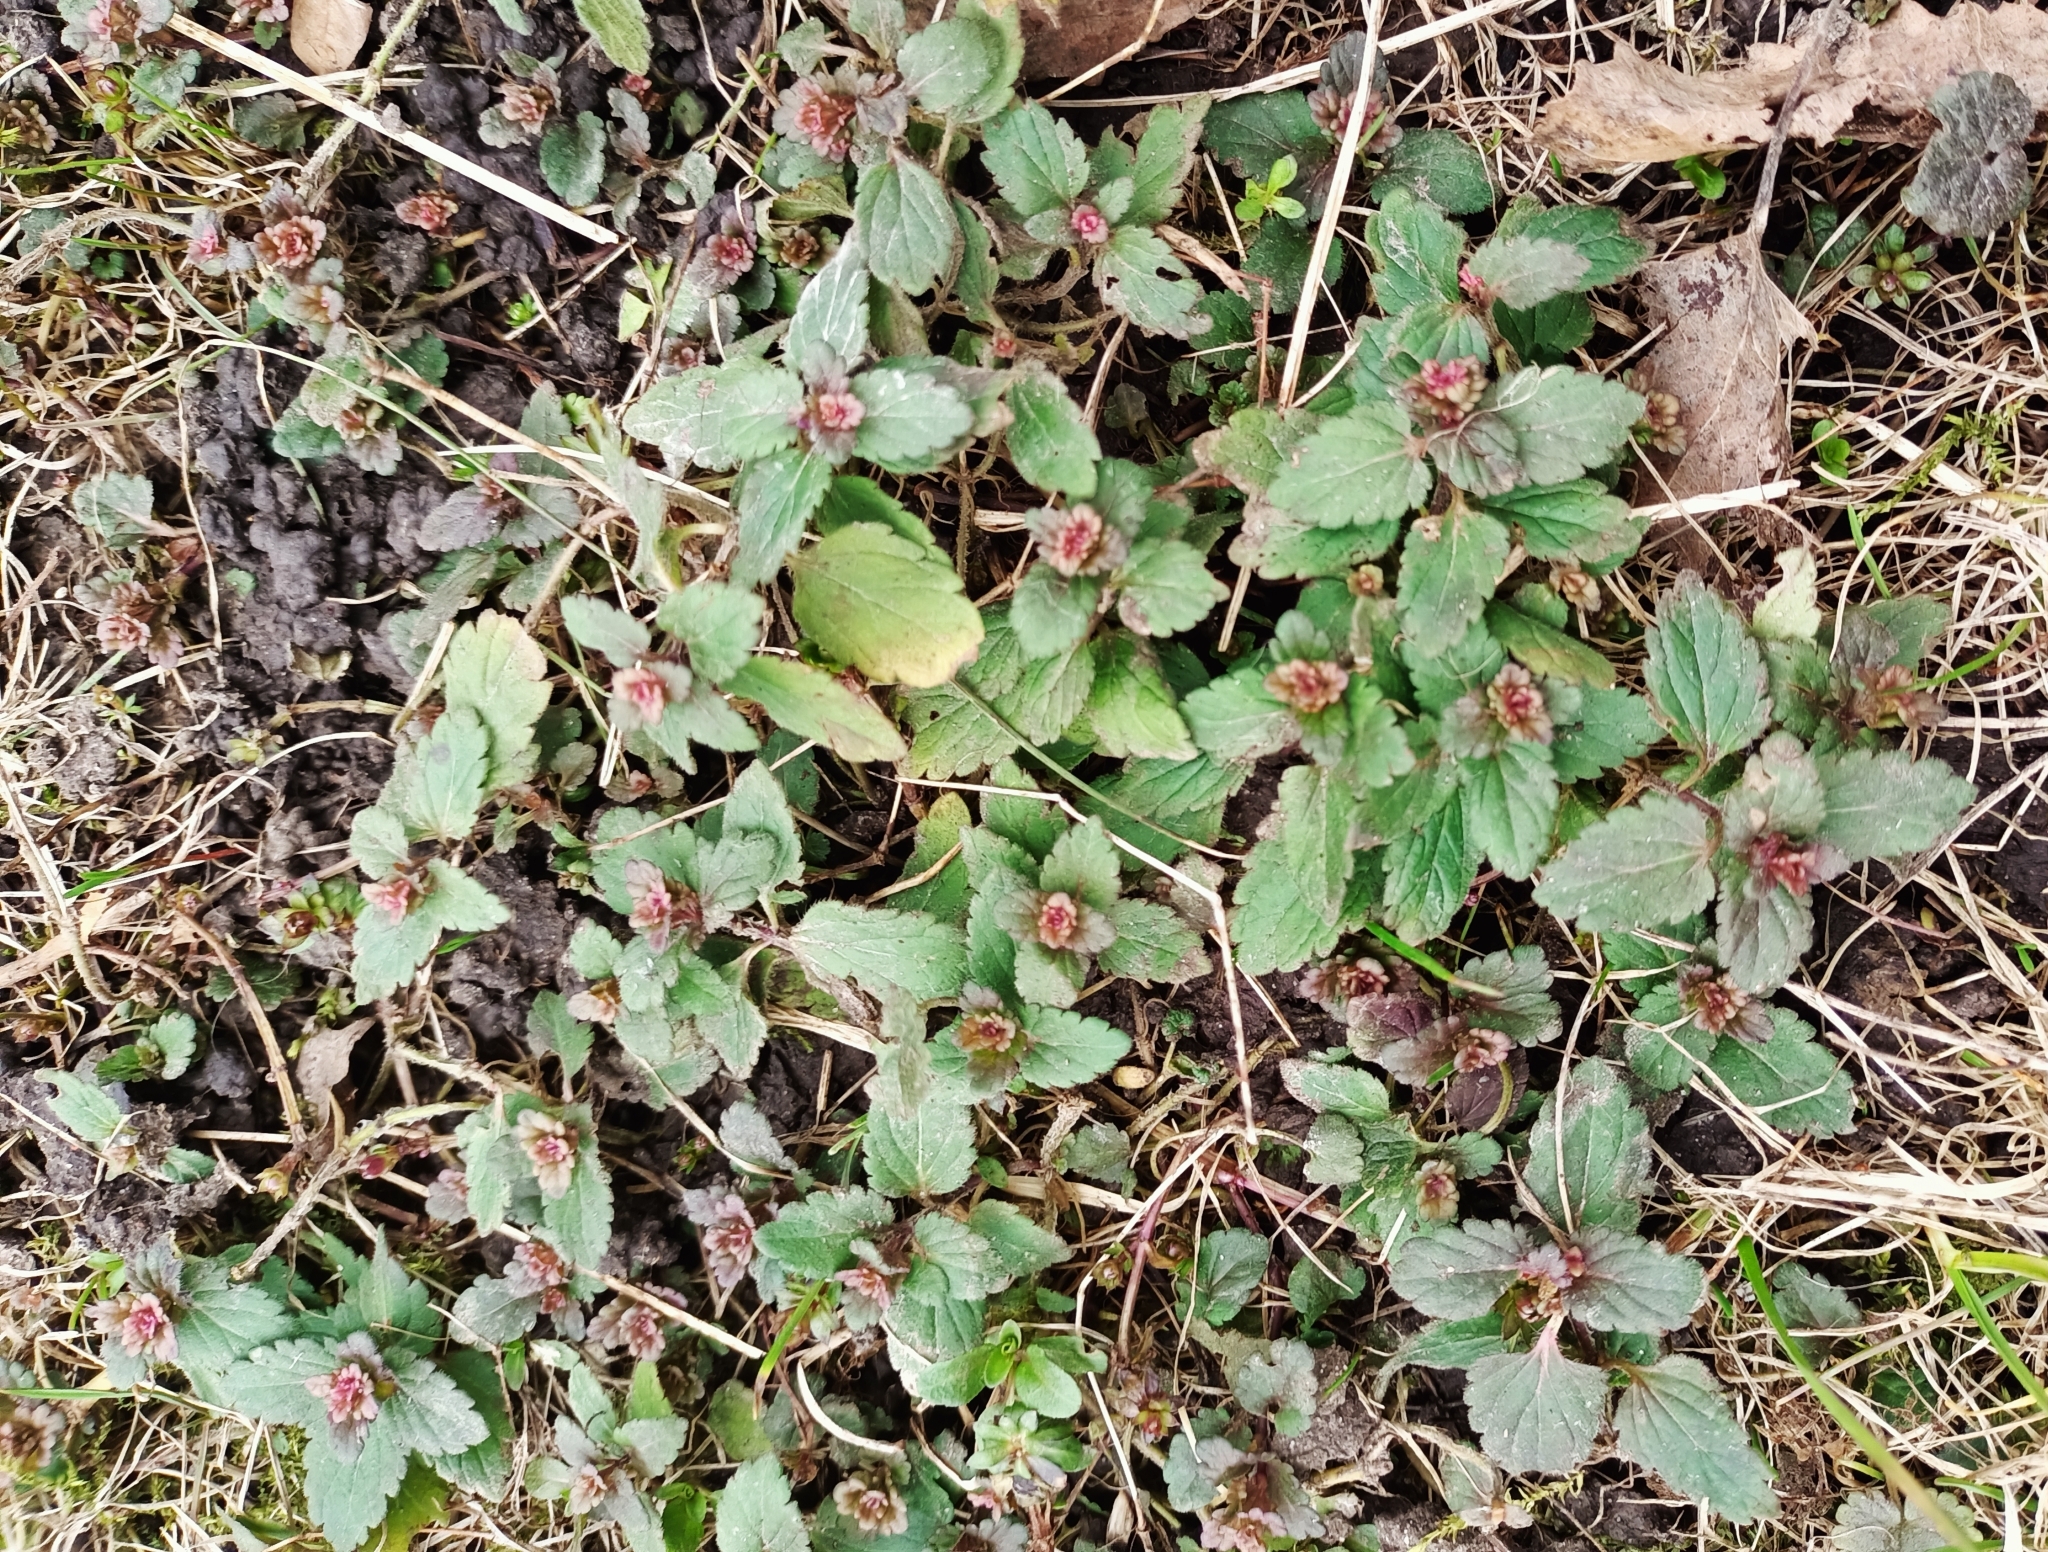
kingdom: Plantae
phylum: Tracheophyta
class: Magnoliopsida
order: Lamiales
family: Plantaginaceae
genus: Veronica
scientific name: Veronica chamaedrys
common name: Germander speedwell
